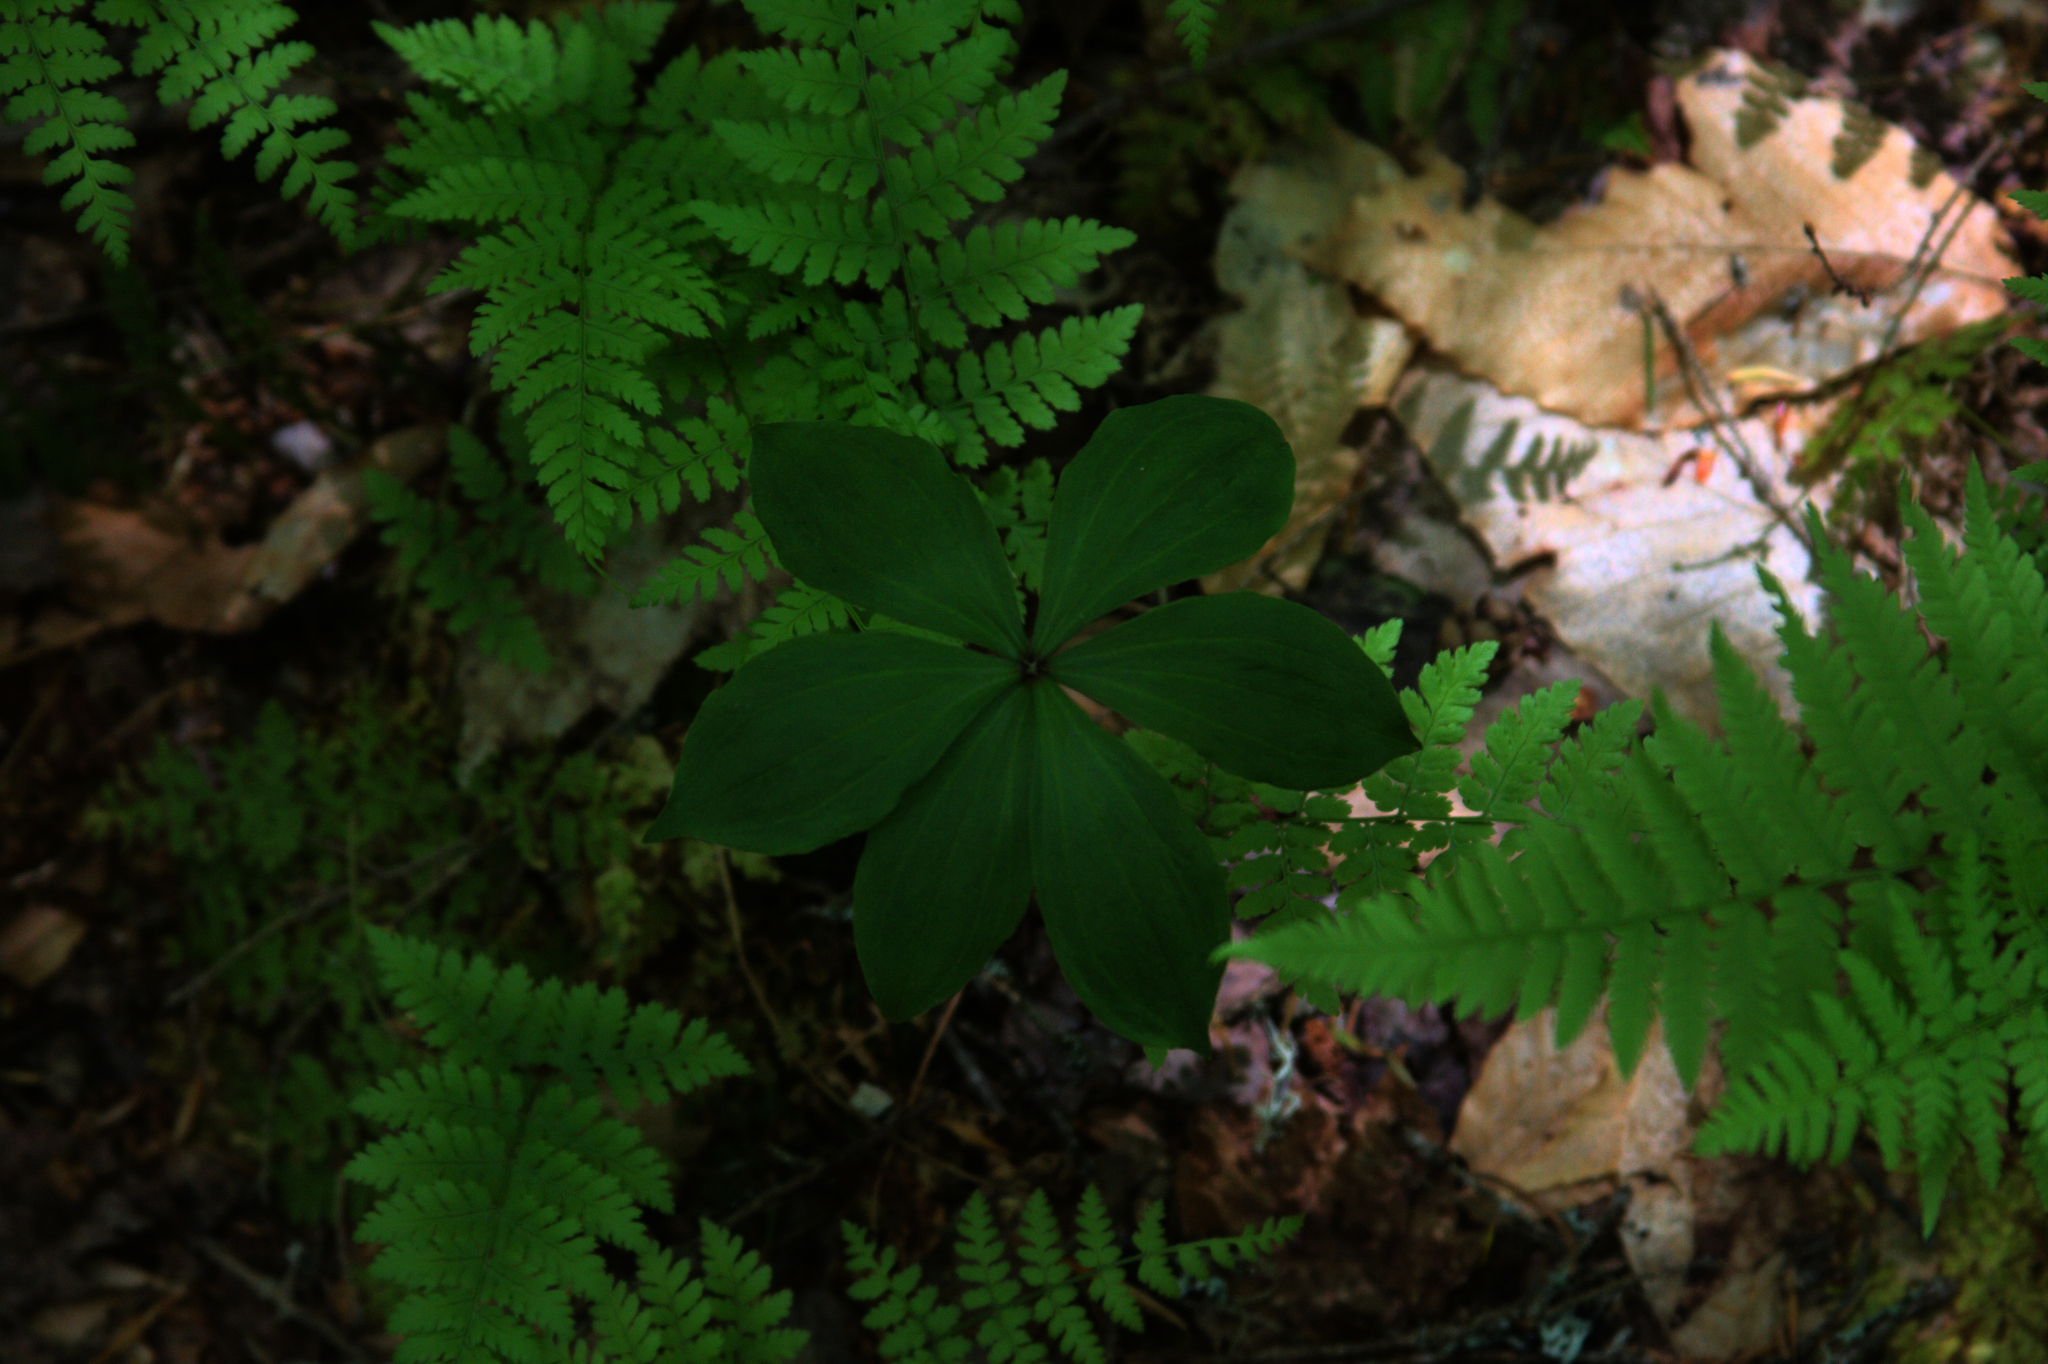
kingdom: Plantae
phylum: Tracheophyta
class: Liliopsida
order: Liliales
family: Liliaceae
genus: Medeola
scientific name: Medeola virginiana
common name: Indian cucumber-root
